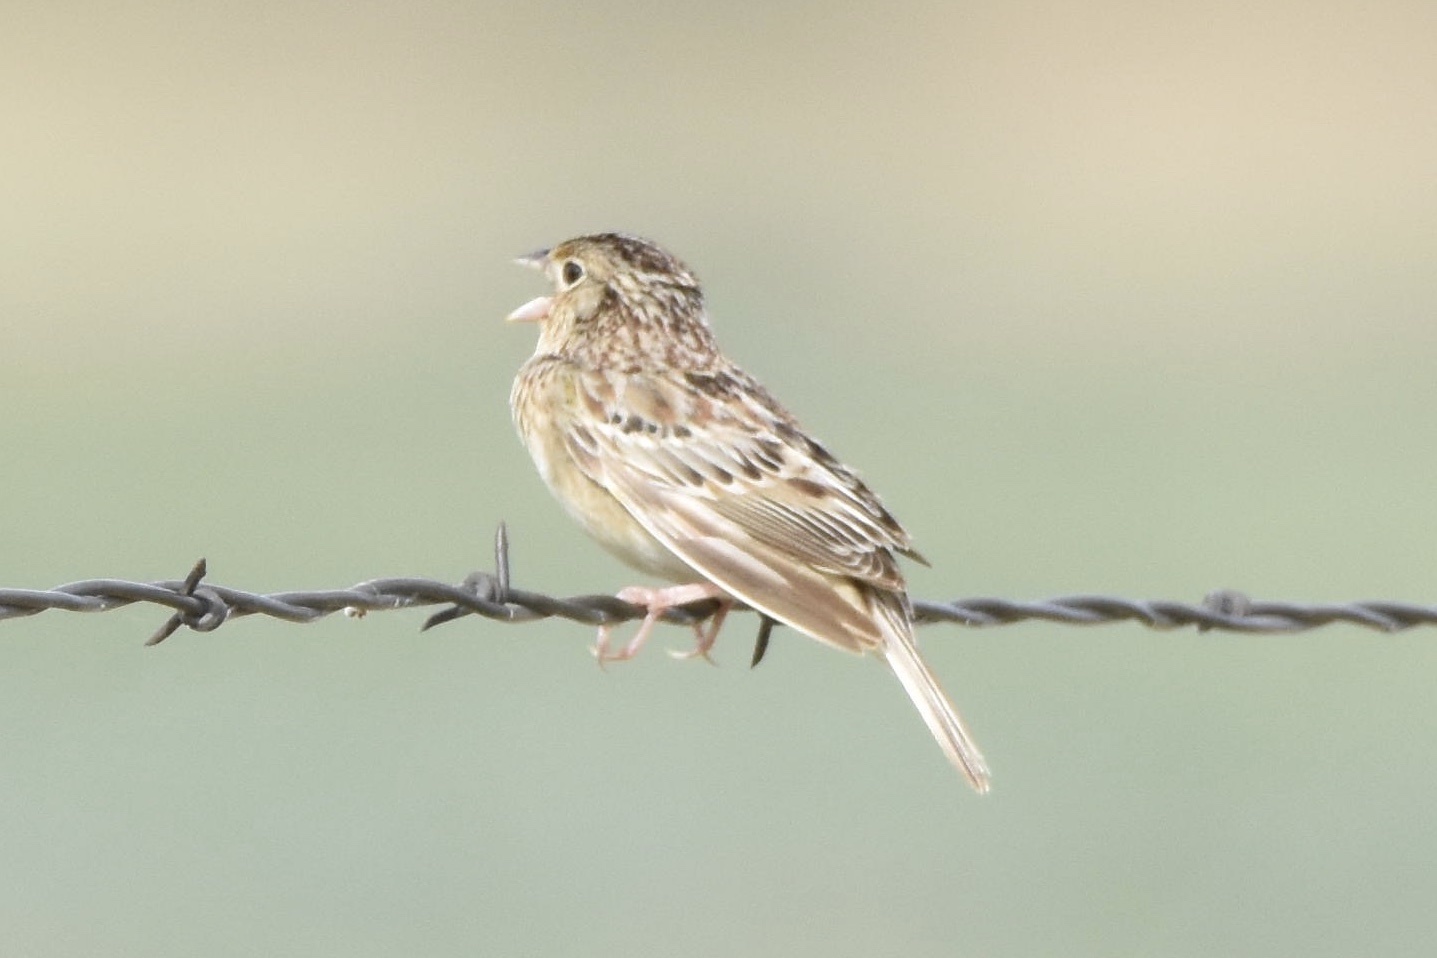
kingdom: Animalia
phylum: Chordata
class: Aves
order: Passeriformes
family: Passerellidae
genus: Ammodramus
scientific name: Ammodramus savannarum
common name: Grasshopper sparrow
